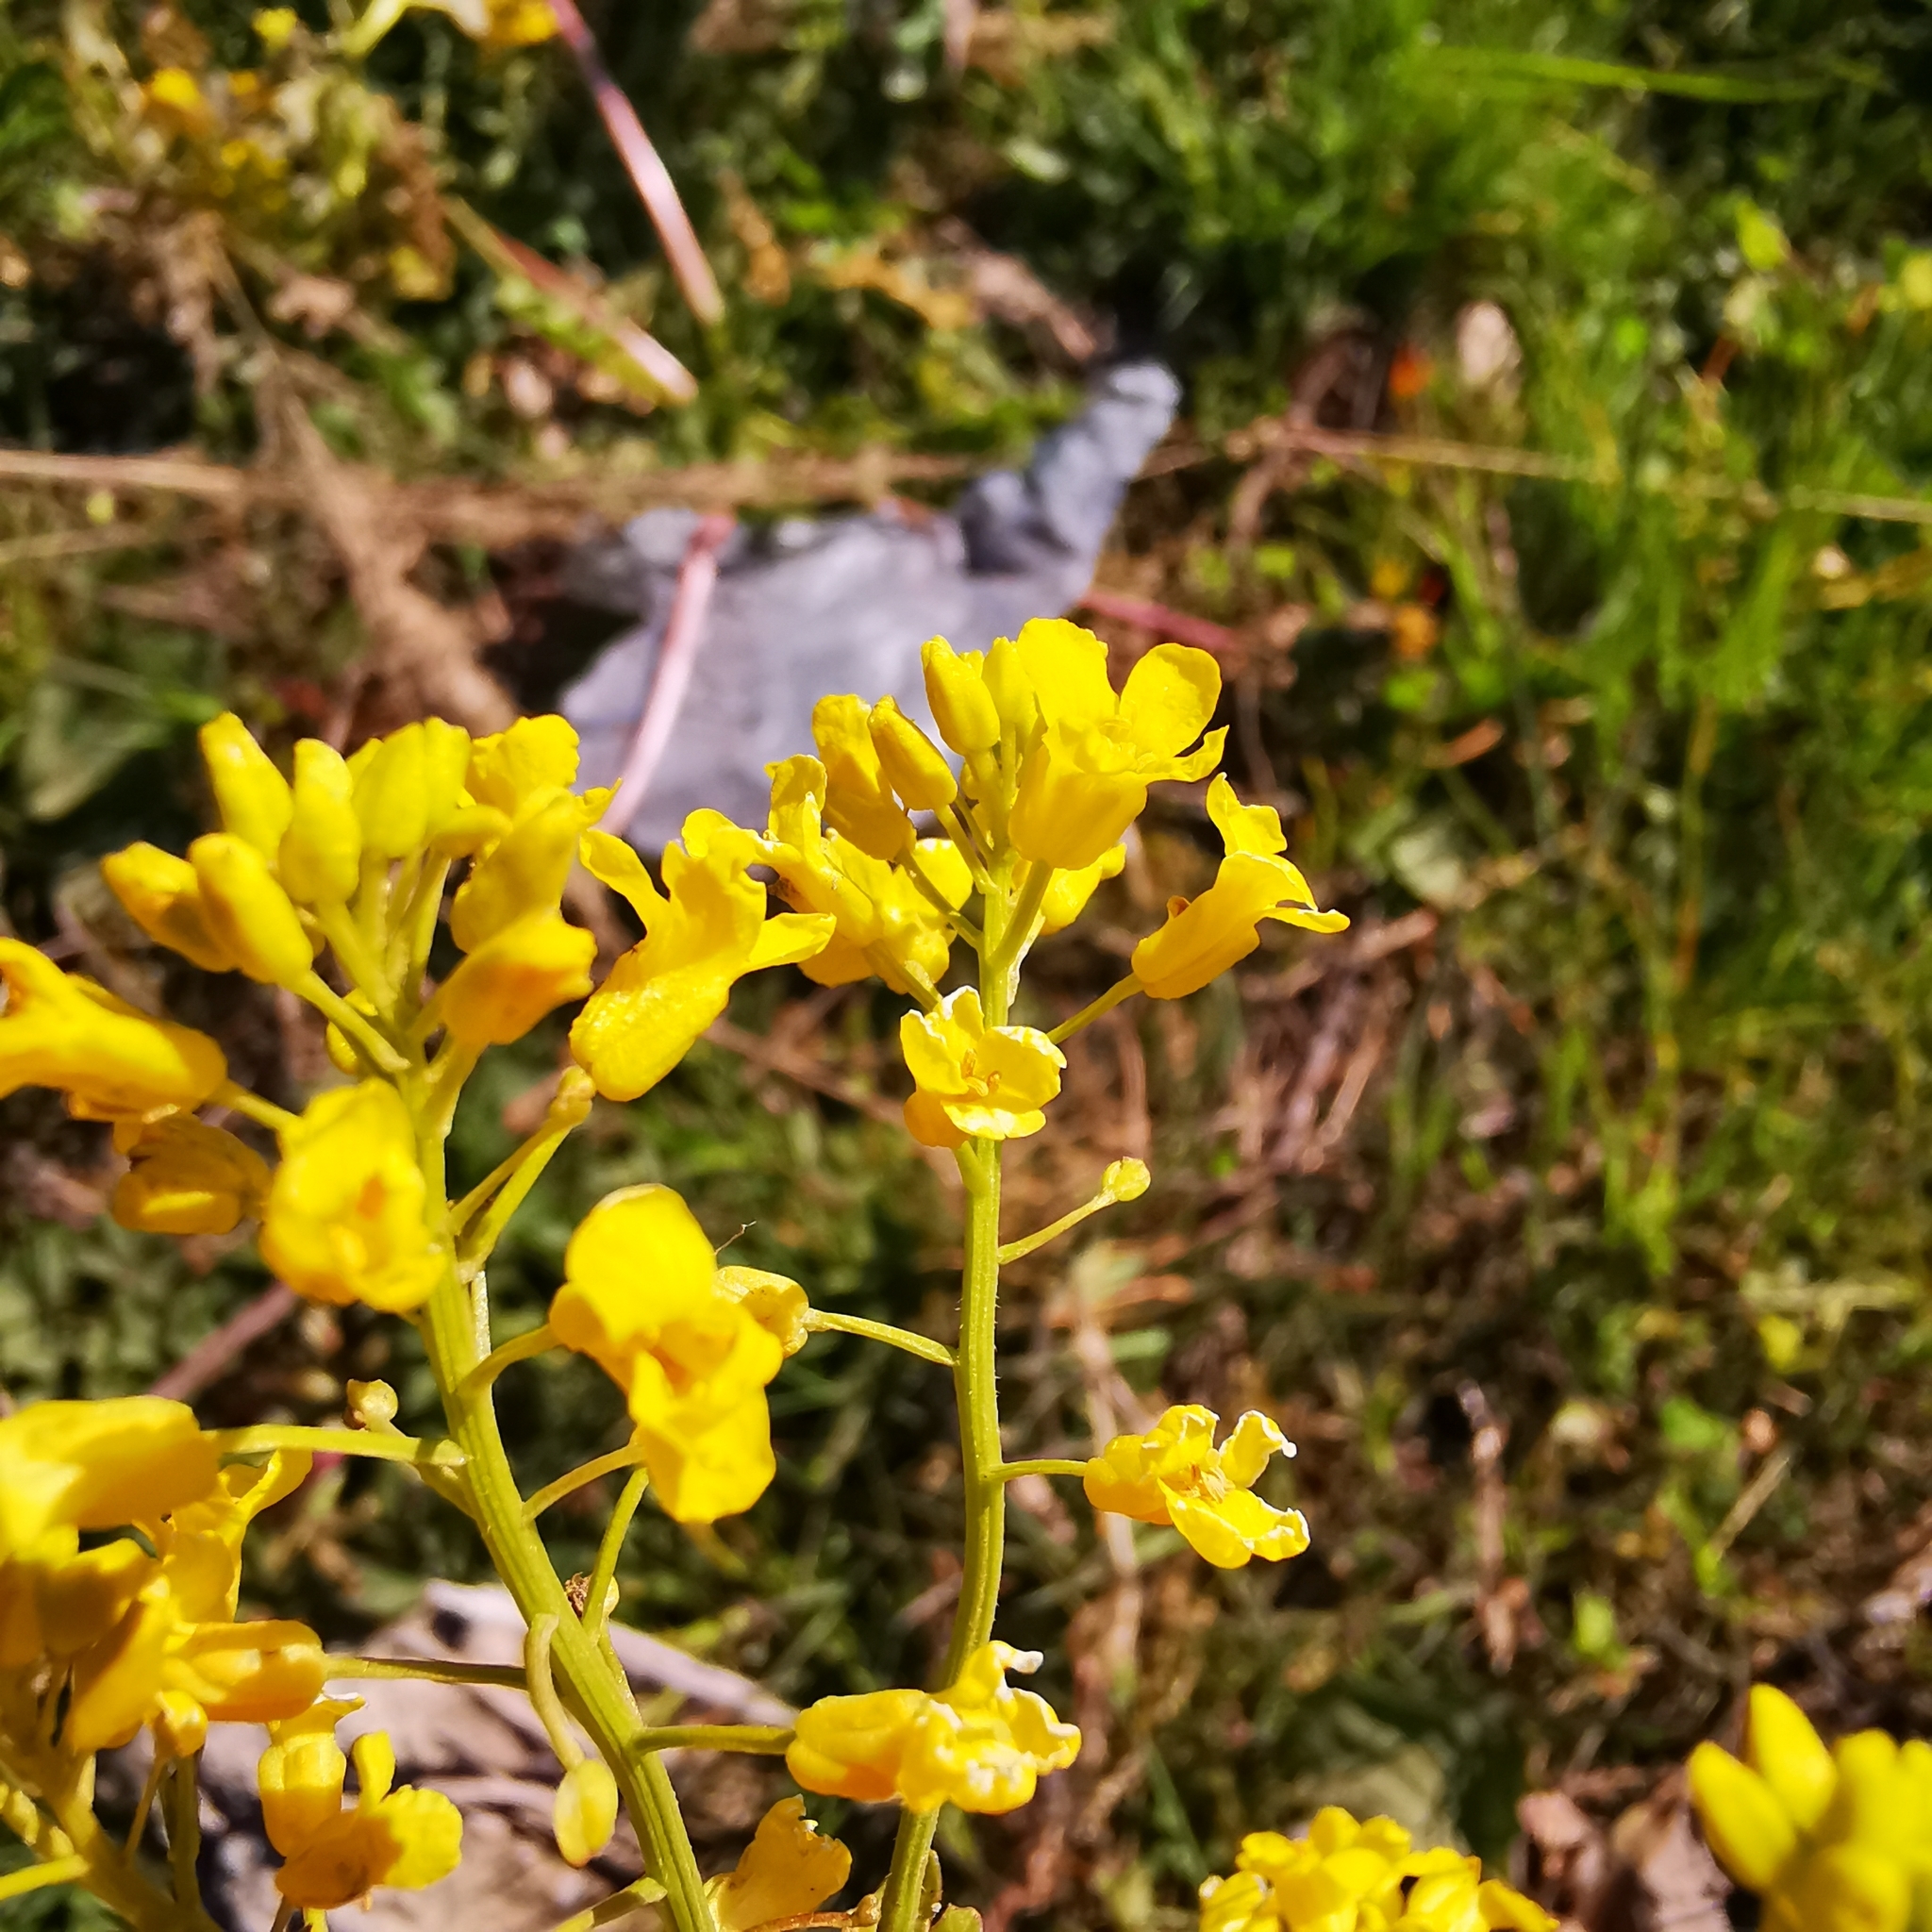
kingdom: Plantae
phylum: Tracheophyta
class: Magnoliopsida
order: Brassicales
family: Brassicaceae
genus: Barbarea
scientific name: Barbarea vulgaris
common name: Cressy-greens
